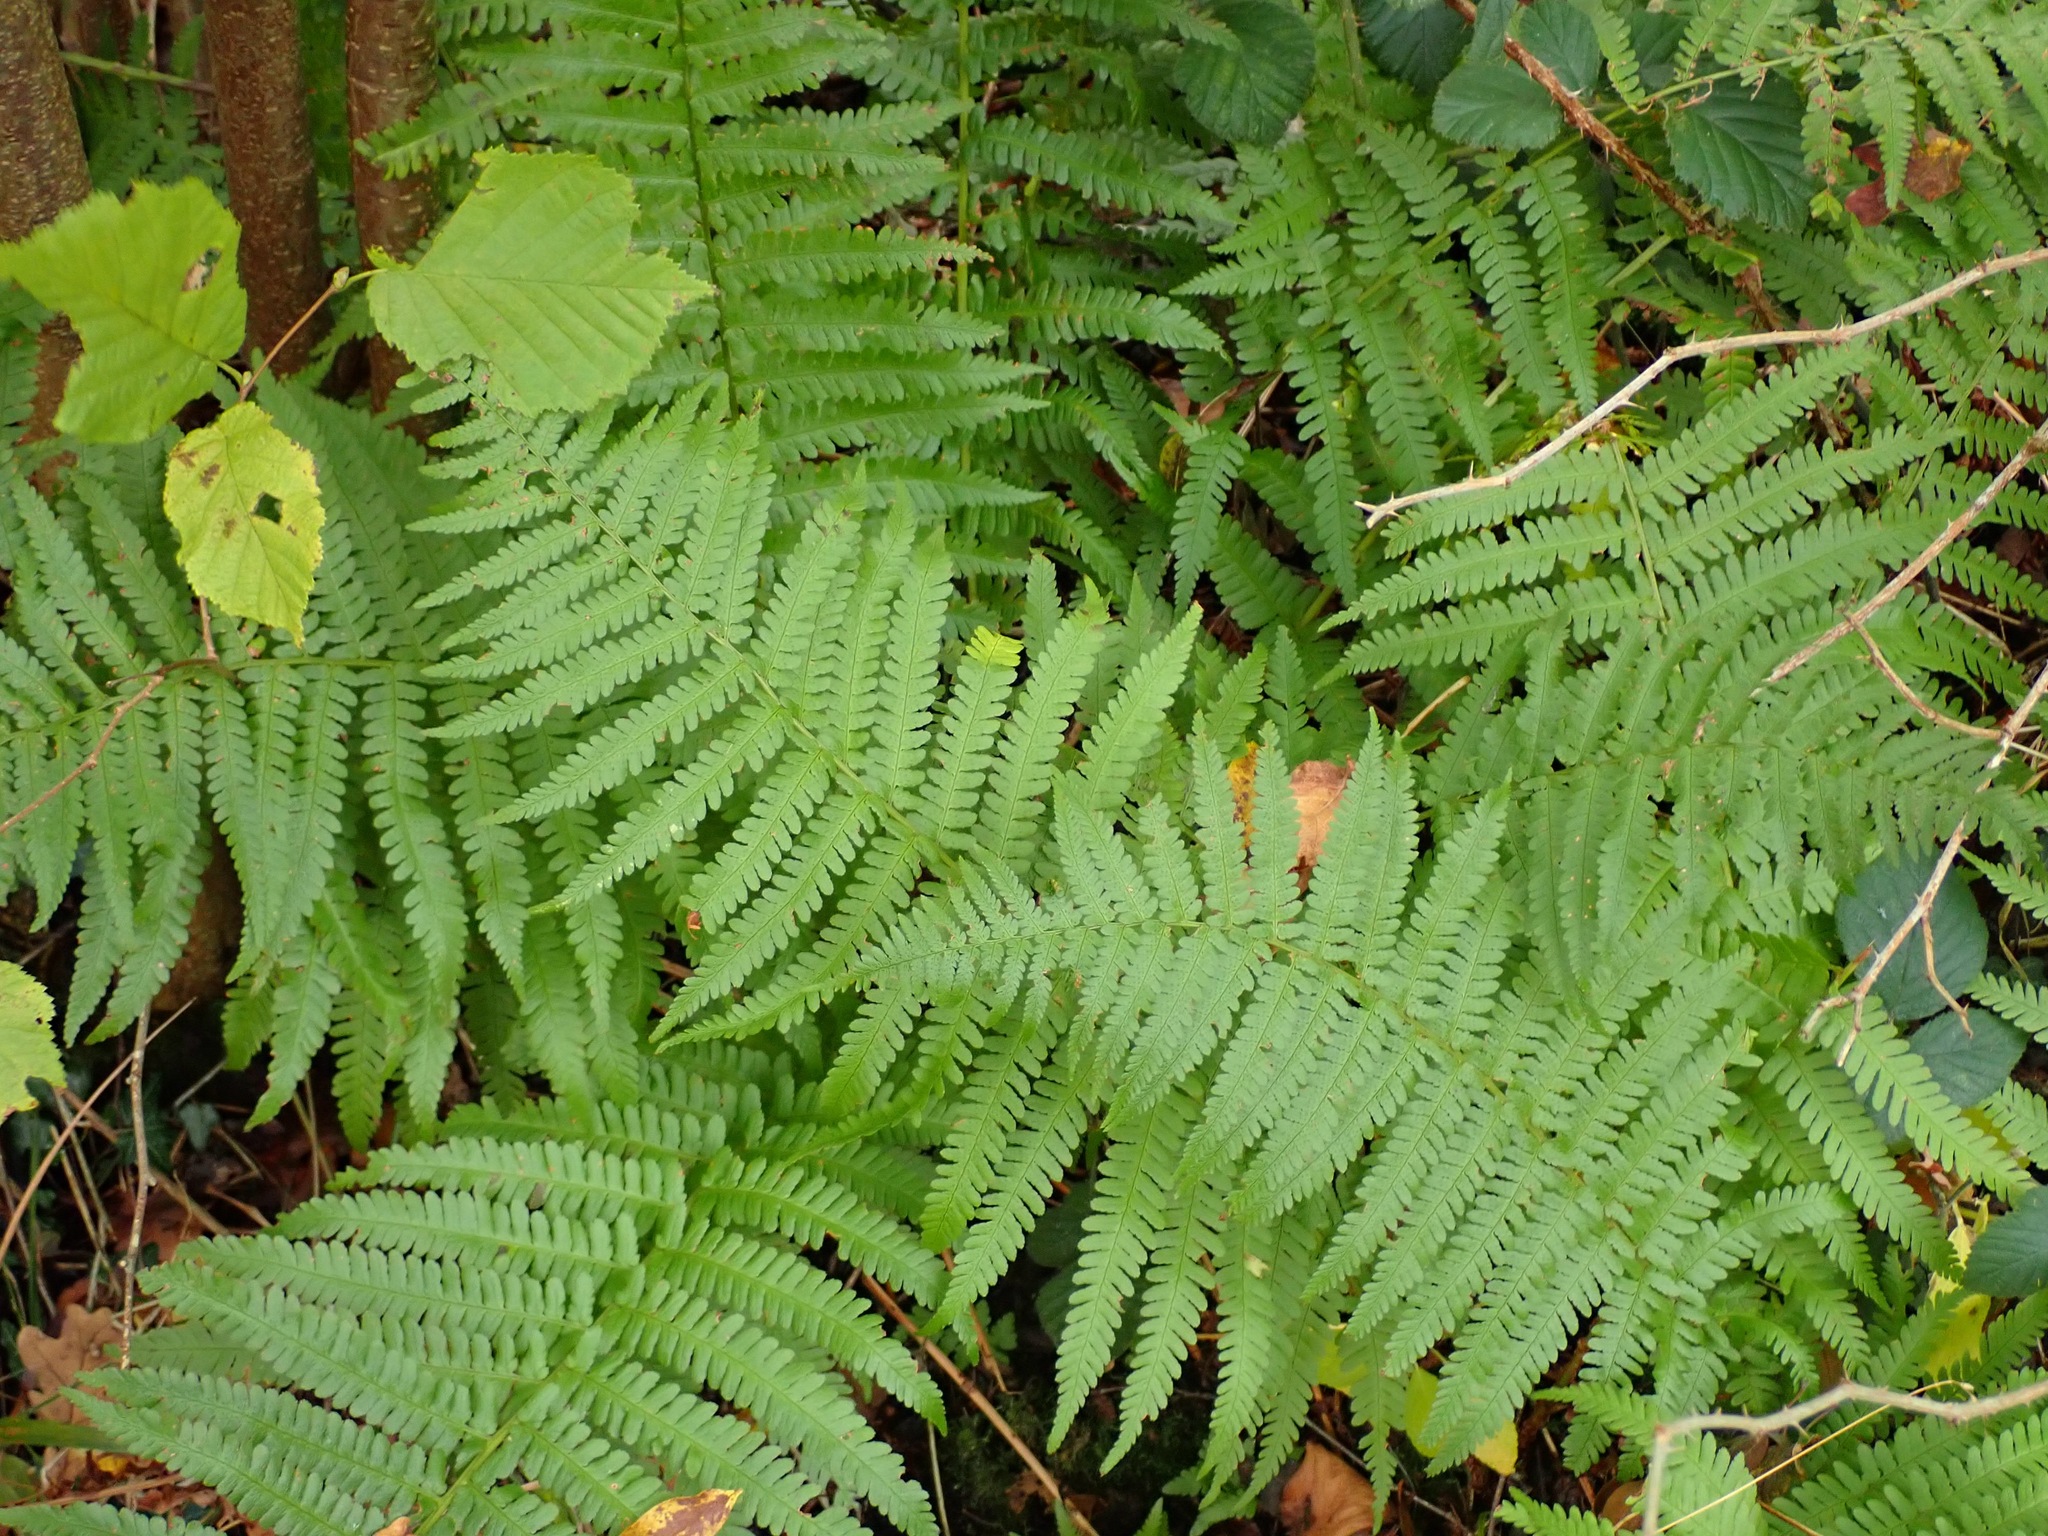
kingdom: Plantae
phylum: Tracheophyta
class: Polypodiopsida
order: Polypodiales
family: Dryopteridaceae
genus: Dryopteris
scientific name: Dryopteris filix-mas
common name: Male fern
